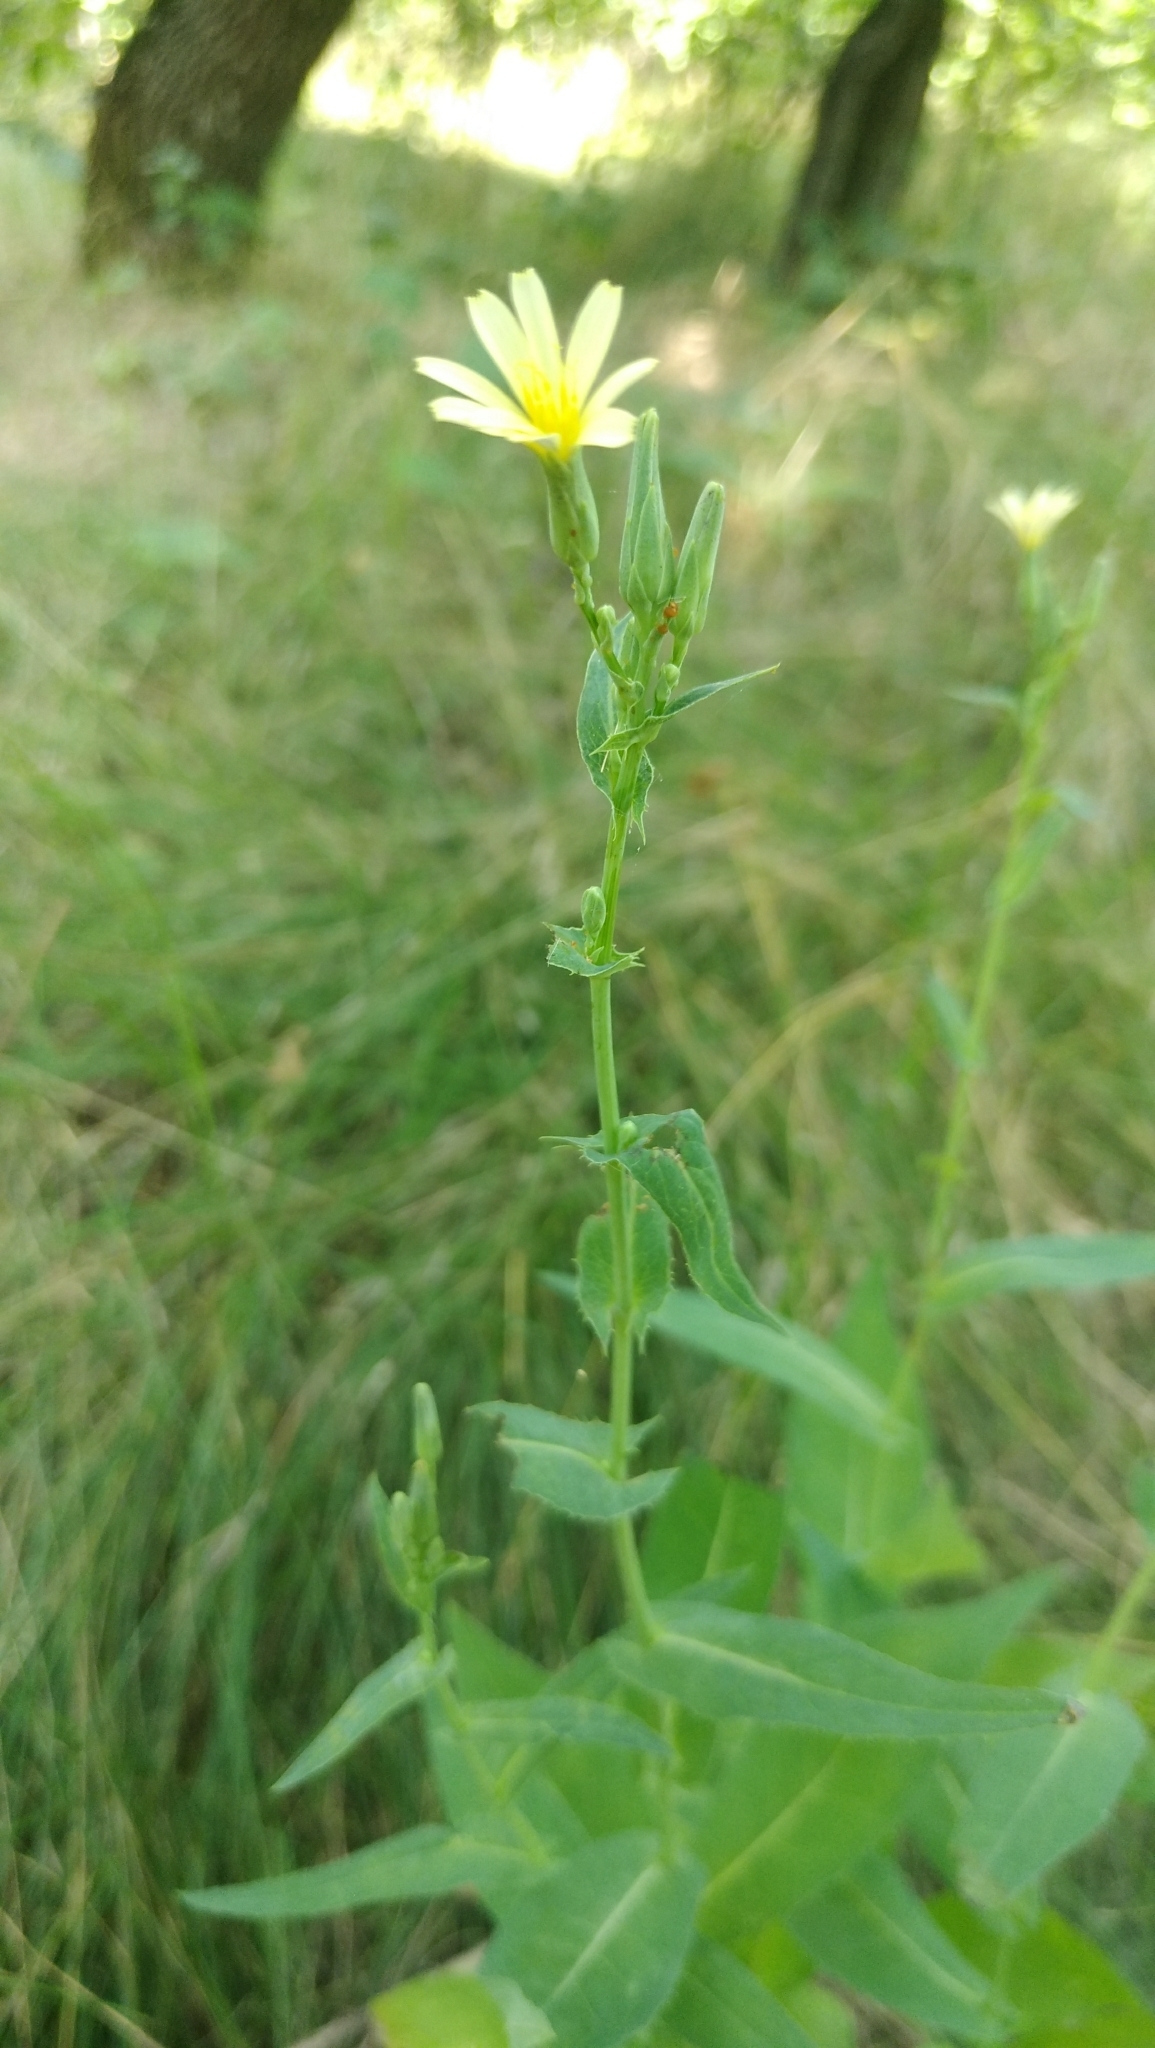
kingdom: Plantae
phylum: Tracheophyta
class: Magnoliopsida
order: Asterales
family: Asteraceae
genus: Lactuca
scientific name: Lactuca serriola
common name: Prickly lettuce
